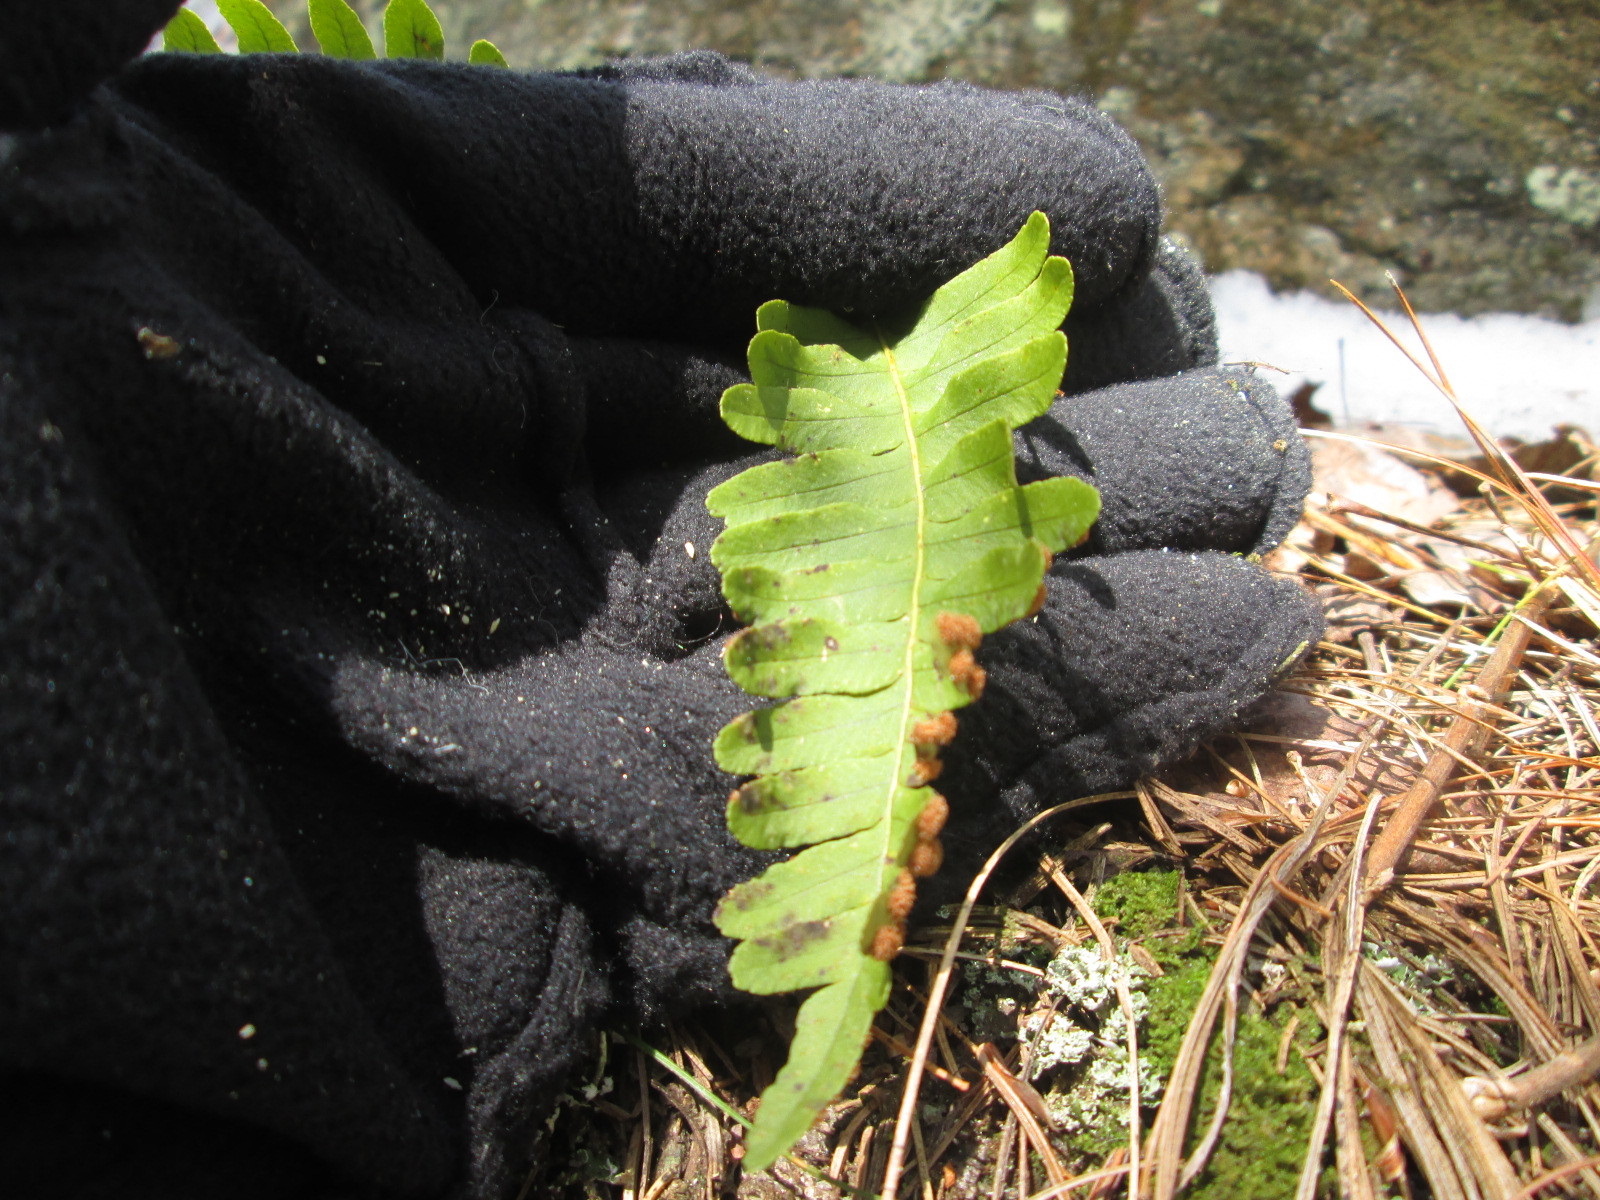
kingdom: Plantae
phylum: Tracheophyta
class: Polypodiopsida
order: Polypodiales
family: Polypodiaceae
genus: Polypodium
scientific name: Polypodium virginianum
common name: American wall fern
